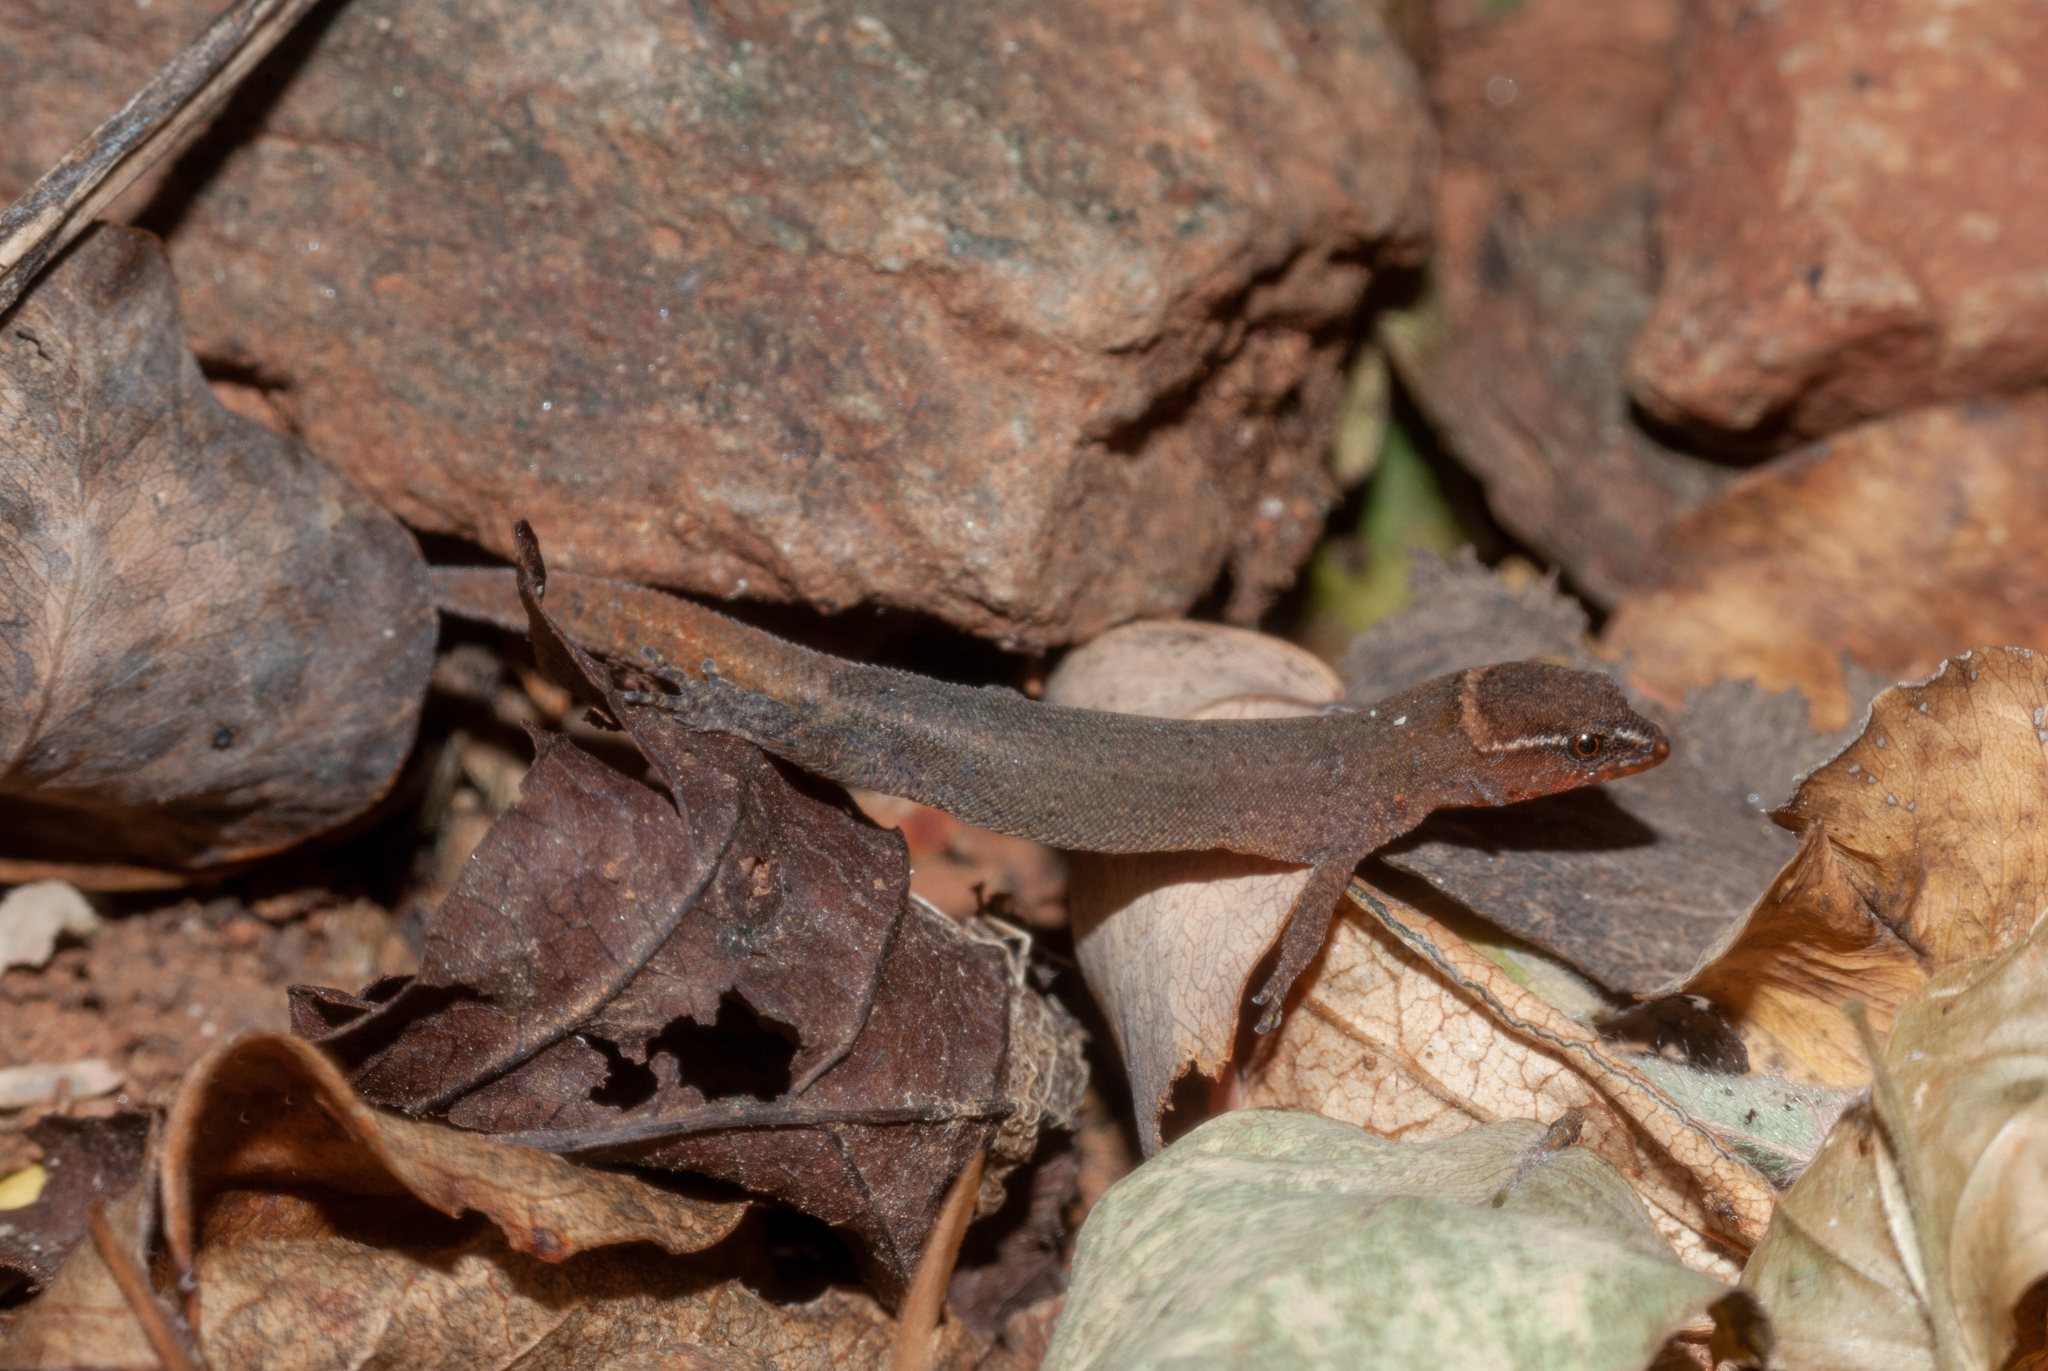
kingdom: Animalia
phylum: Chordata
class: Squamata
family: Sphaerodactylidae
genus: Lepidoblepharis
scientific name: Lepidoblepharis miyatai
